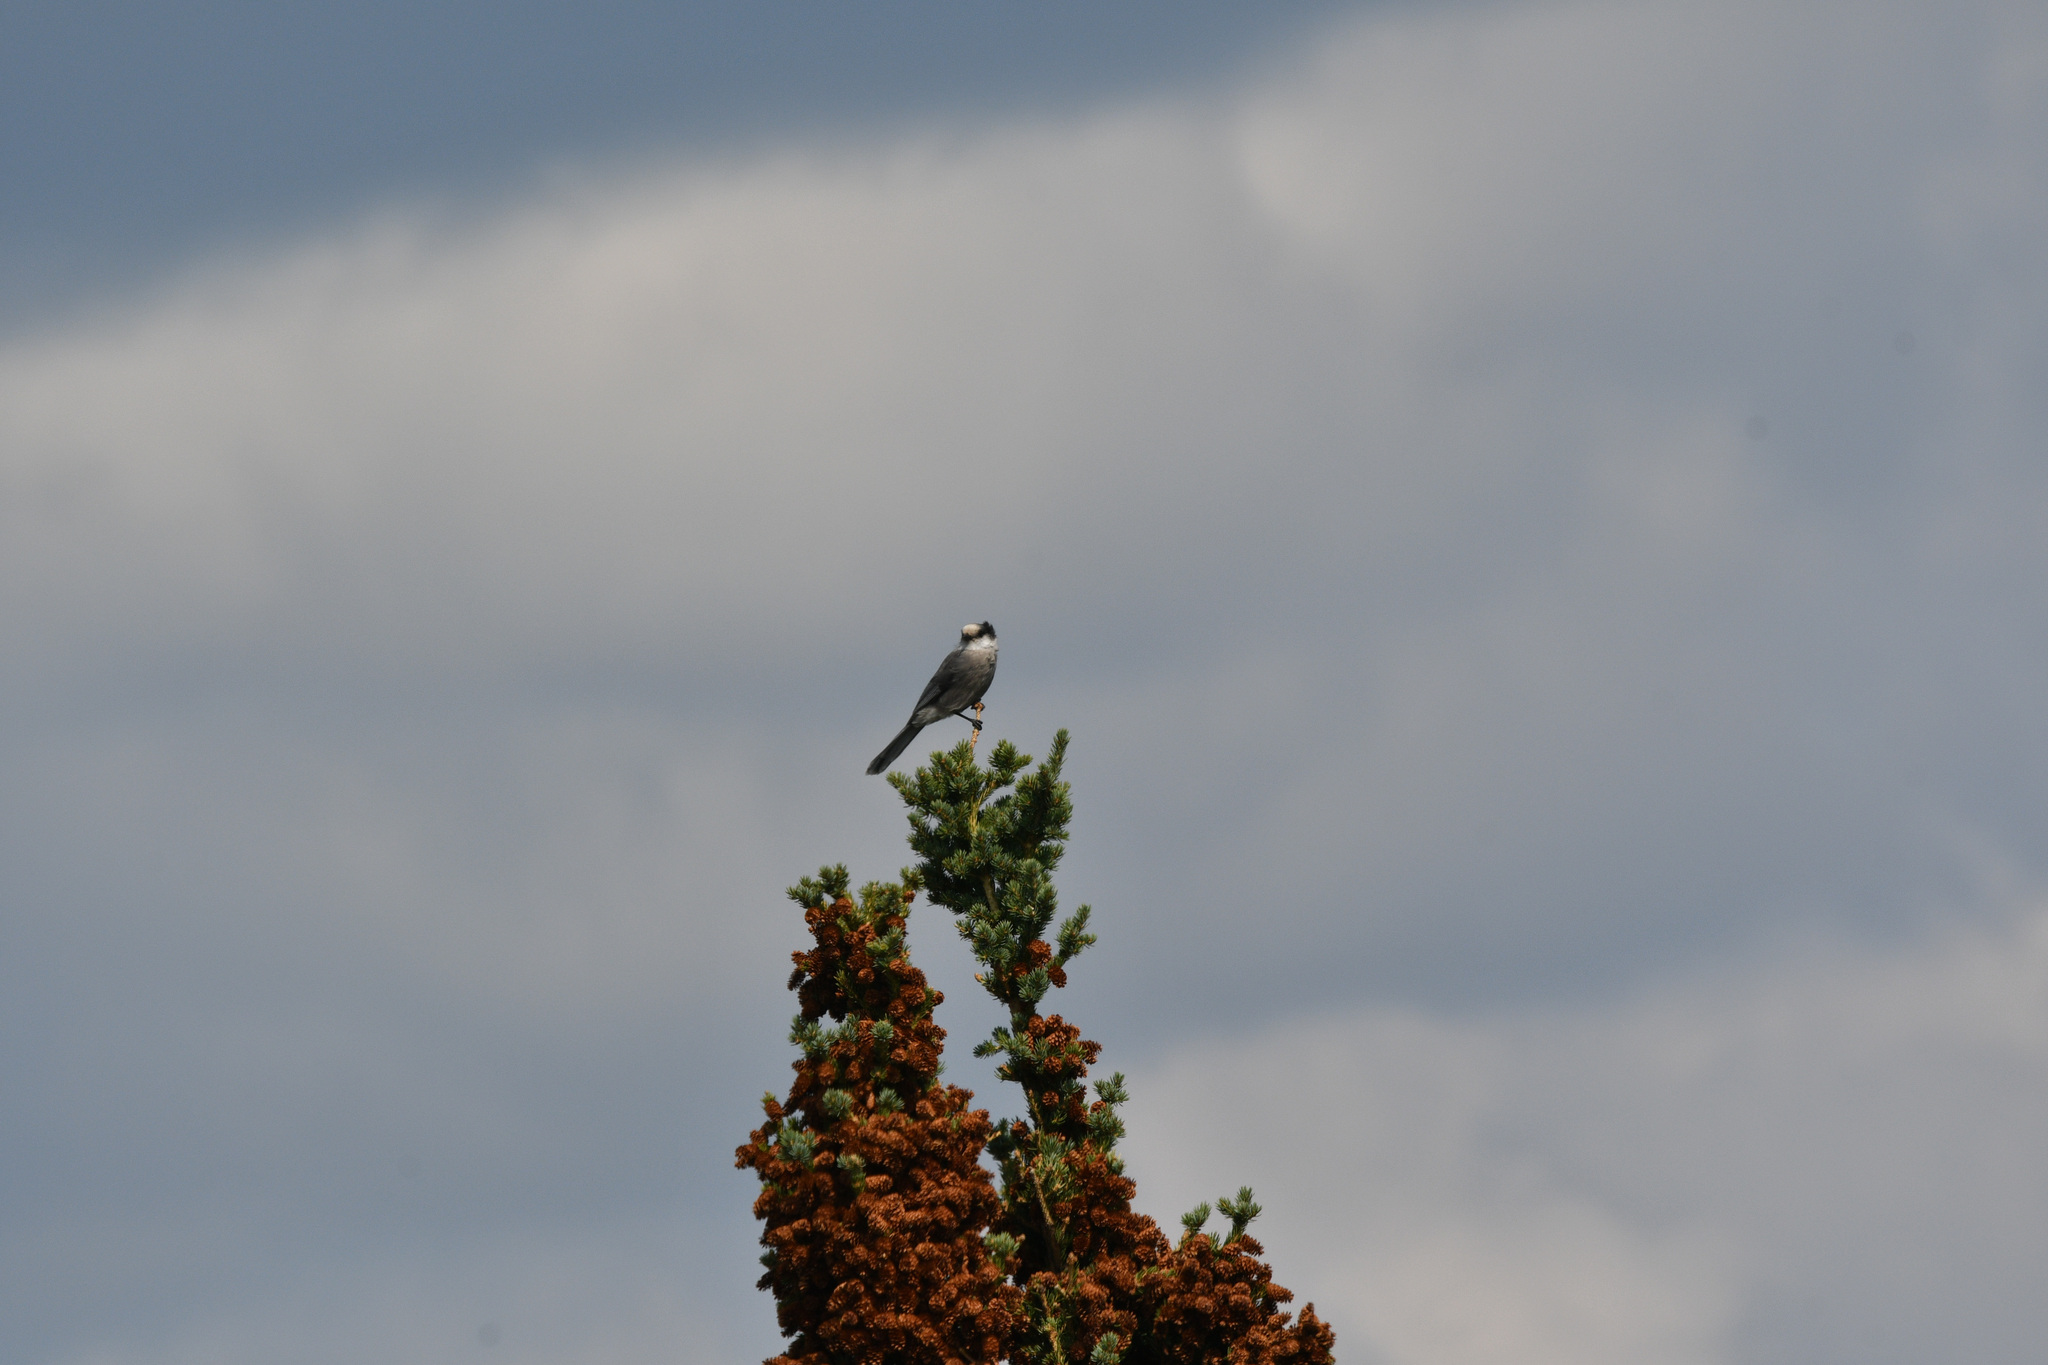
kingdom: Animalia
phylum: Chordata
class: Aves
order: Passeriformes
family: Corvidae
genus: Perisoreus
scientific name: Perisoreus canadensis
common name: Gray jay
